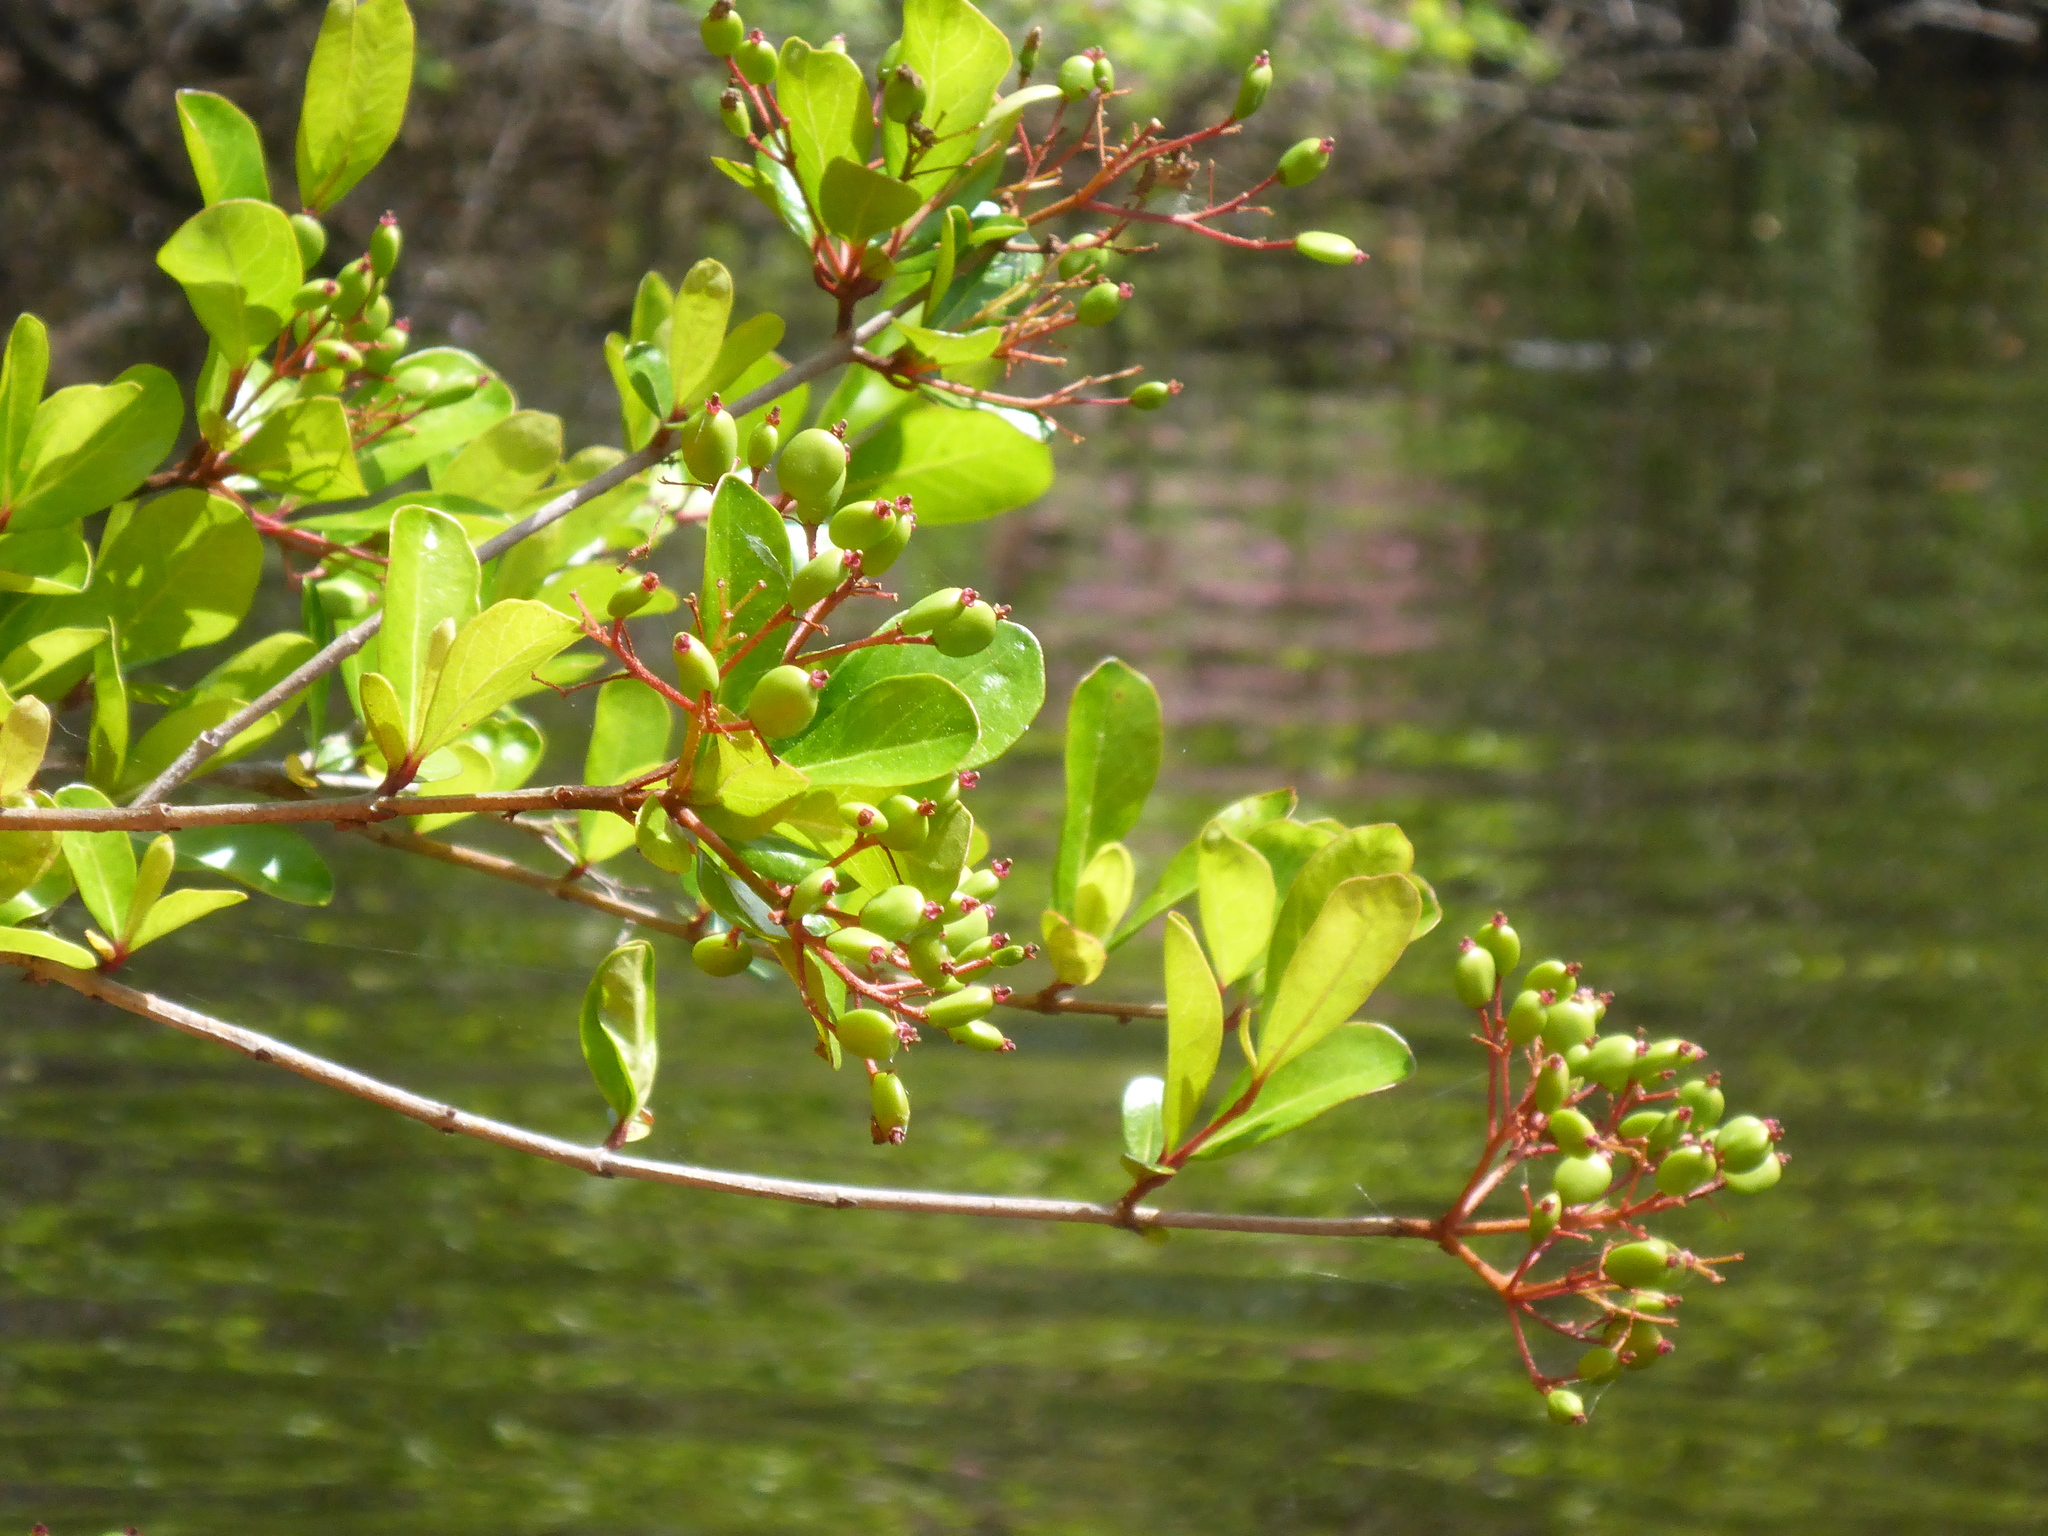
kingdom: Plantae
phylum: Tracheophyta
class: Magnoliopsida
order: Dipsacales
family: Viburnaceae
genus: Viburnum
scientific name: Viburnum obovatum
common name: Walter's viburnum
